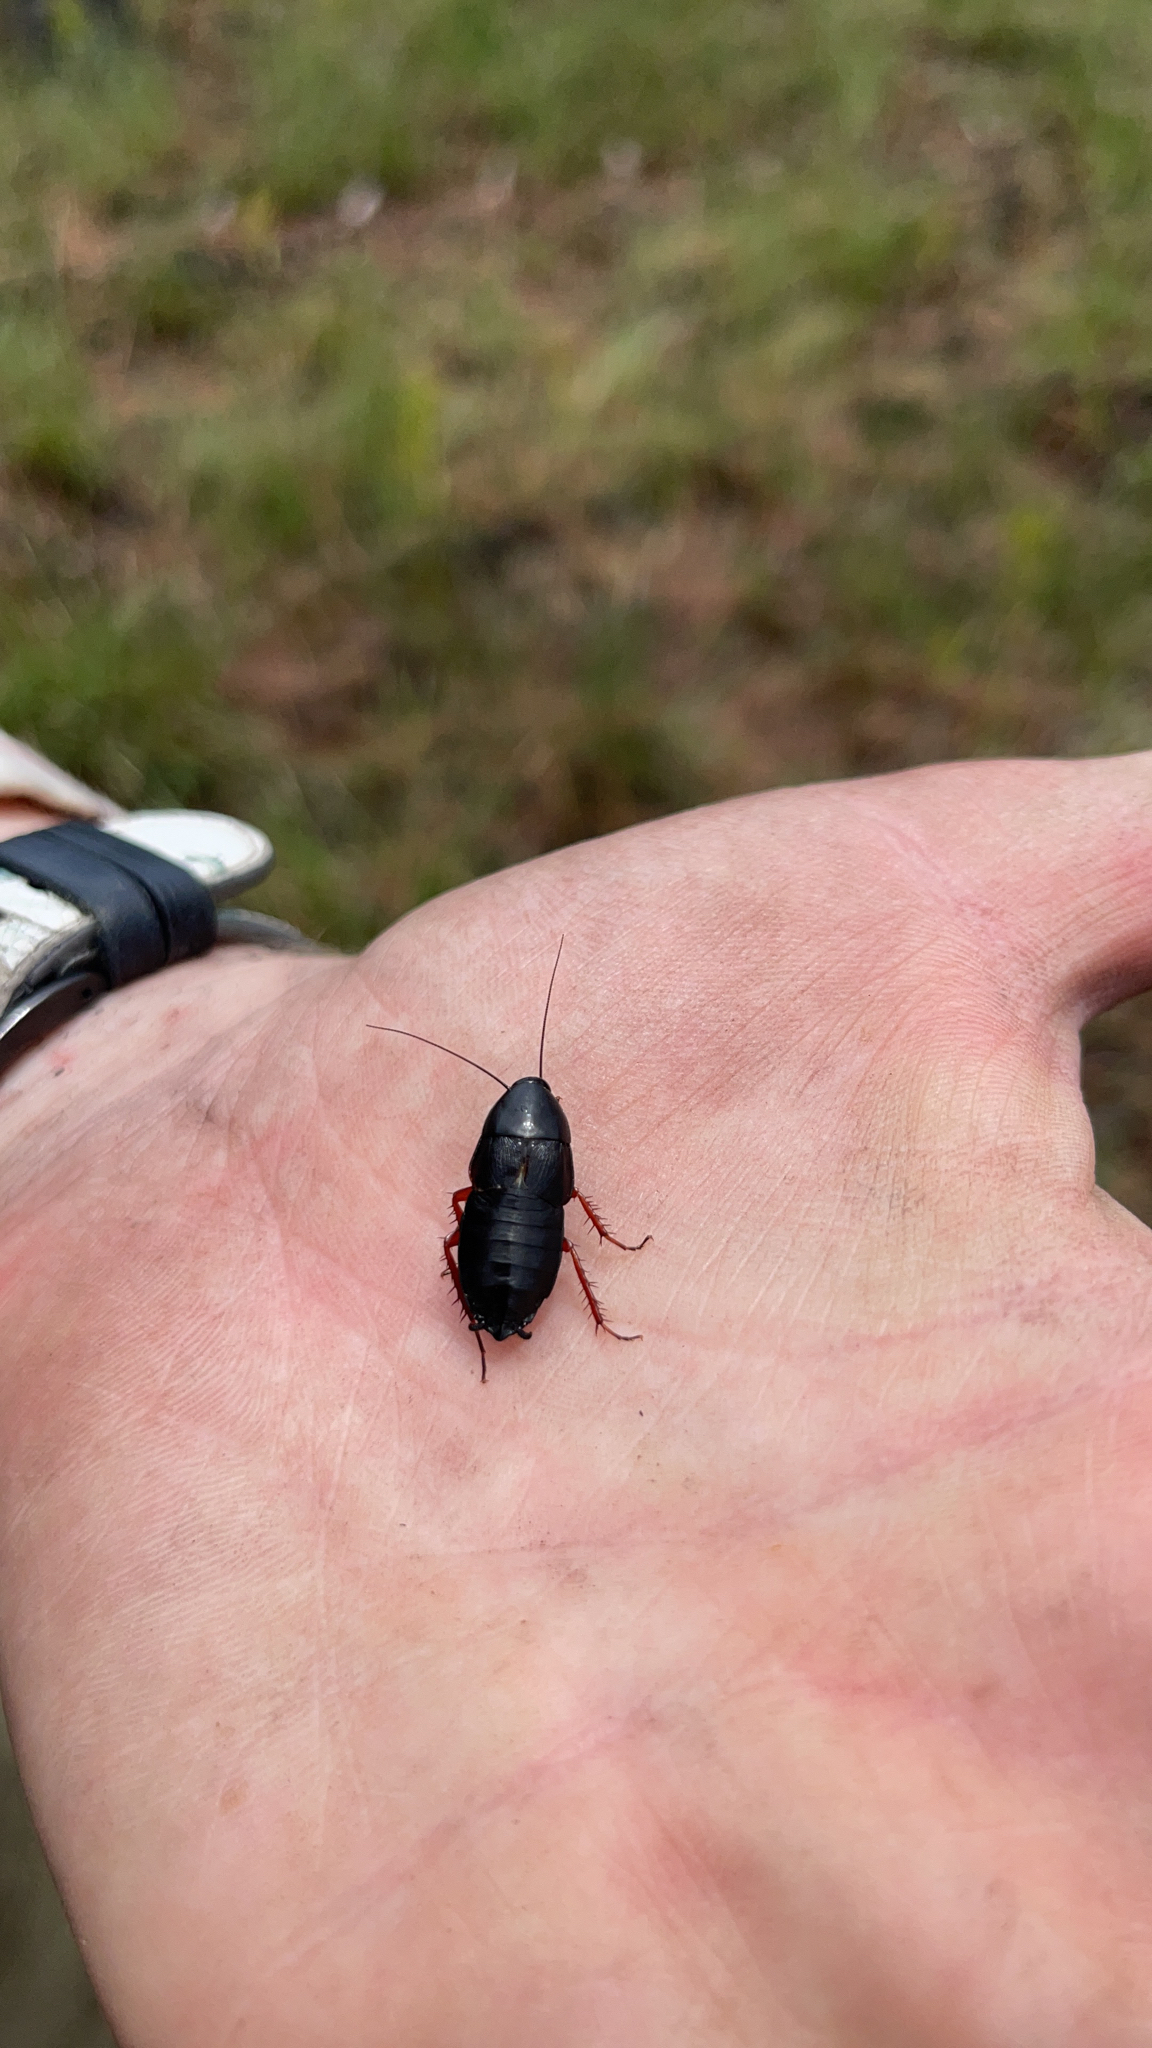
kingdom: Animalia
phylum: Arthropoda
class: Insecta
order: Blattodea
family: Ectobiidae
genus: Ischnoptera
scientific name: Ischnoptera deropeltiformis
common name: Dark wood cockroach
